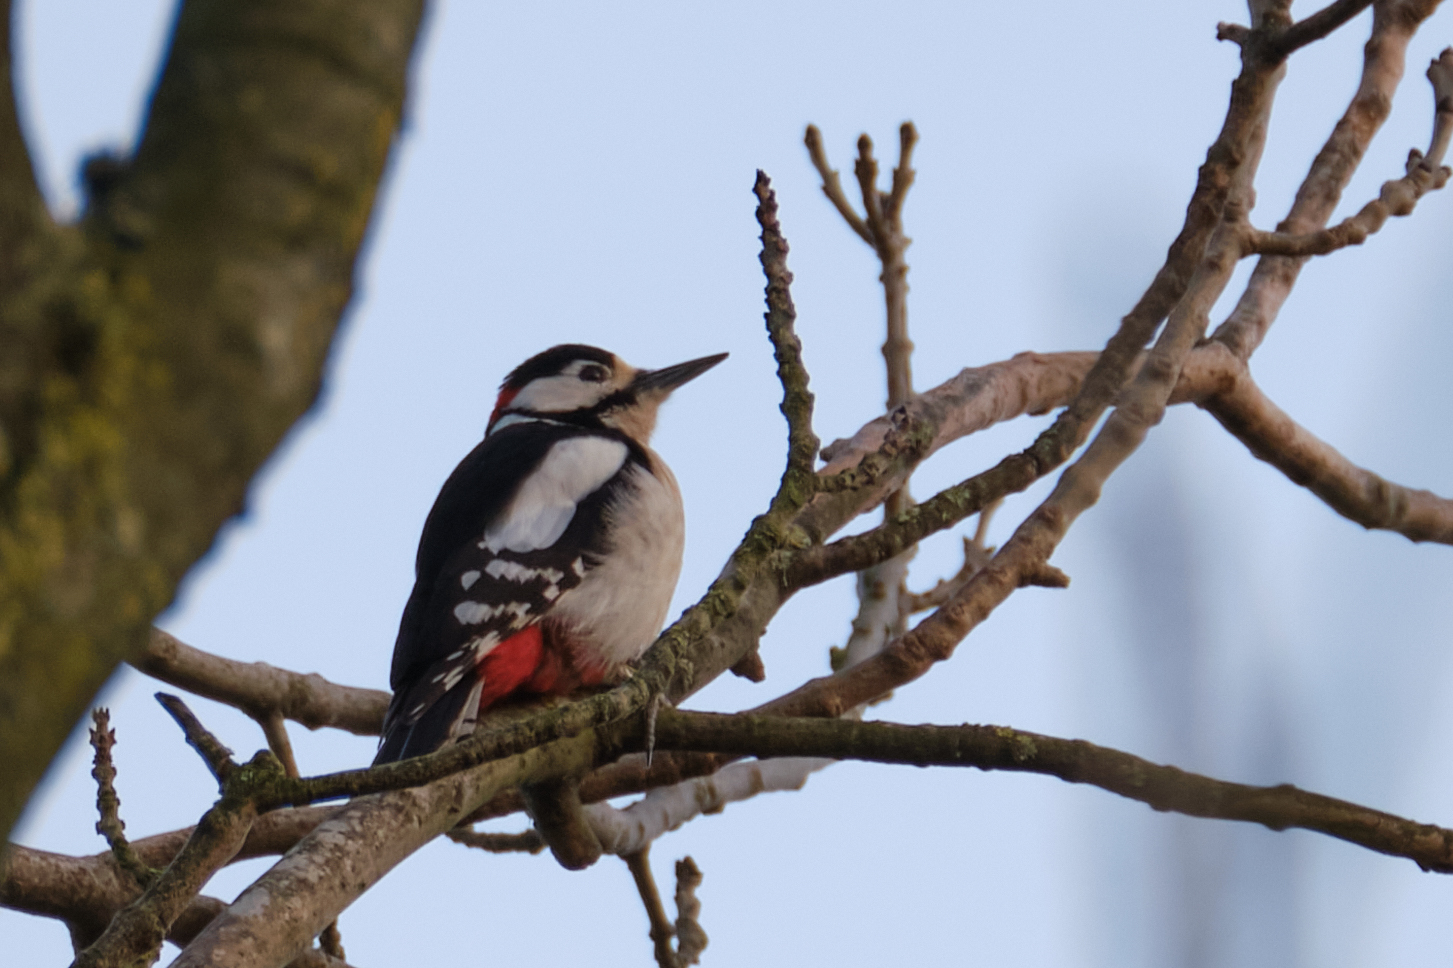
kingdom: Animalia
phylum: Chordata
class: Aves
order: Piciformes
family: Picidae
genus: Dendrocopos
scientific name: Dendrocopos major
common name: Great spotted woodpecker
